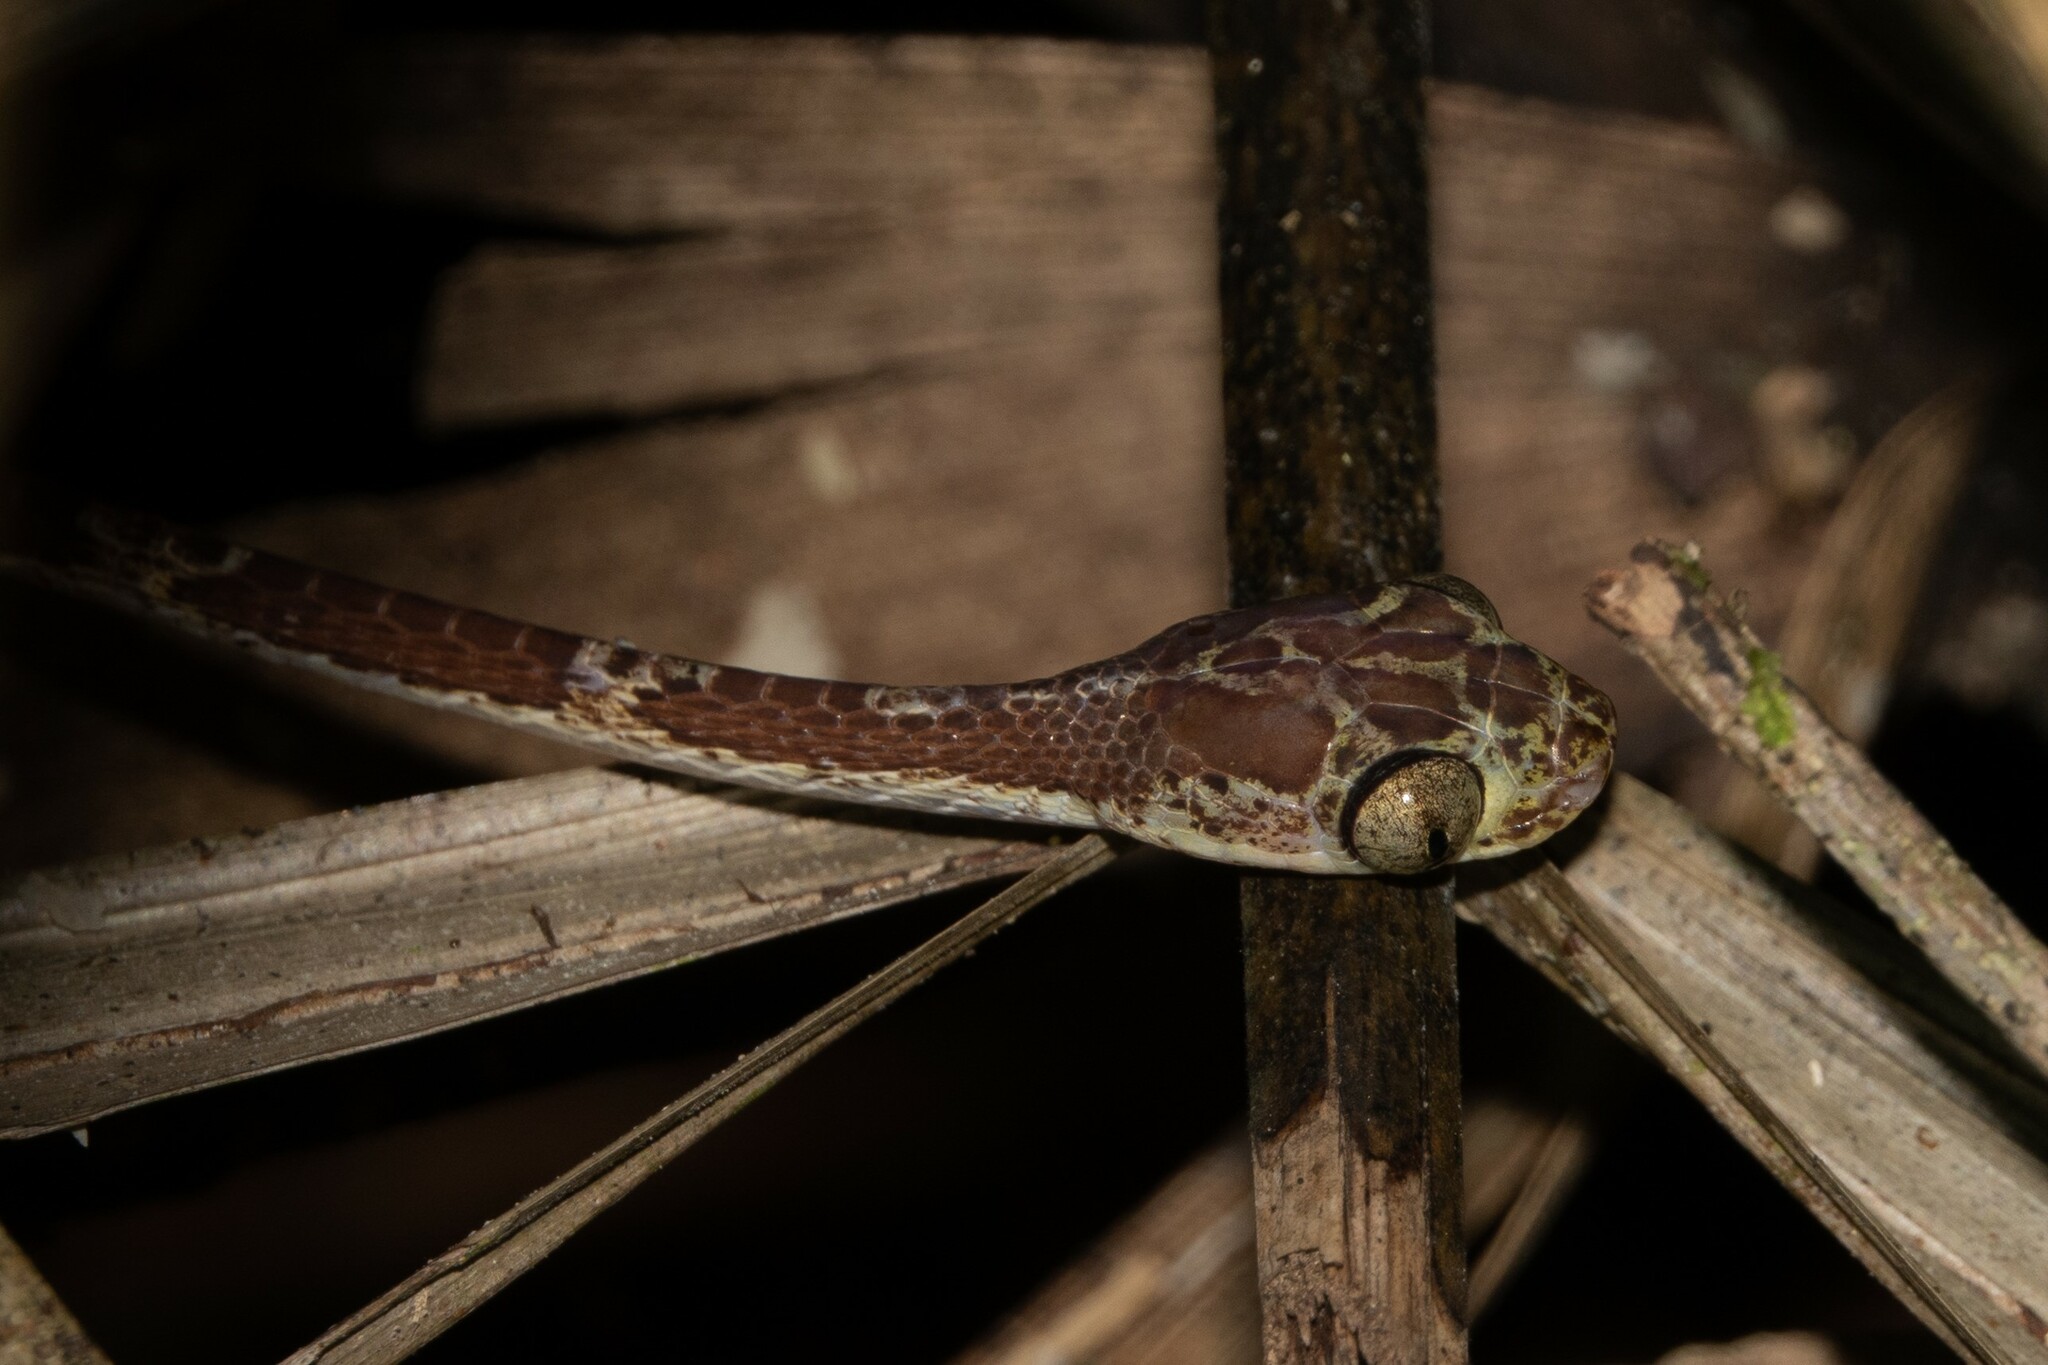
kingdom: Animalia
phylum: Chordata
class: Squamata
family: Colubridae
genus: Imantodes
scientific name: Imantodes cenchoa
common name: Blunthead tree snake
